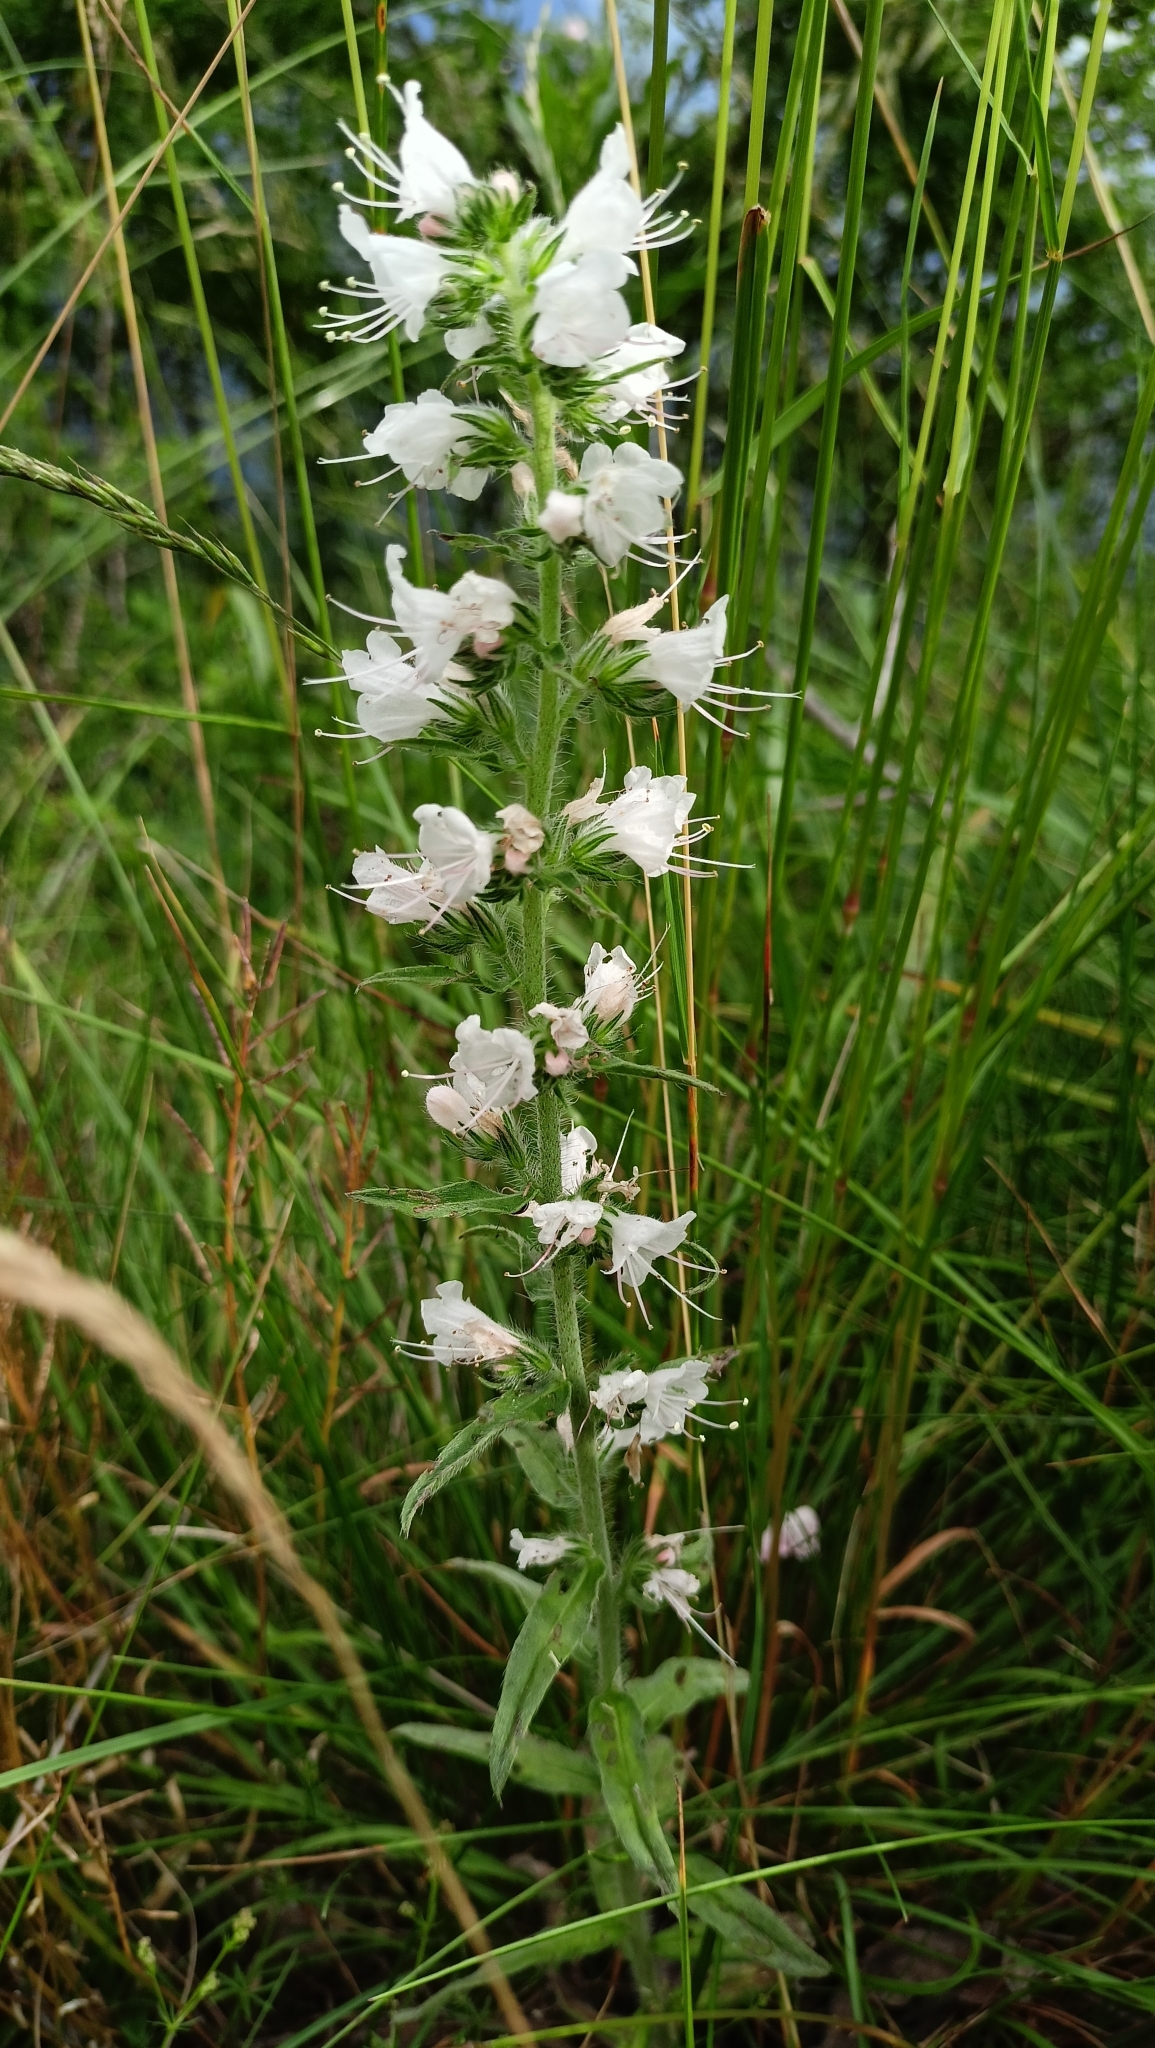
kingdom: Plantae
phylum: Tracheophyta
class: Magnoliopsida
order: Boraginales
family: Boraginaceae
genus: Echium
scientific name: Echium vulgare
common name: Common viper's bugloss
